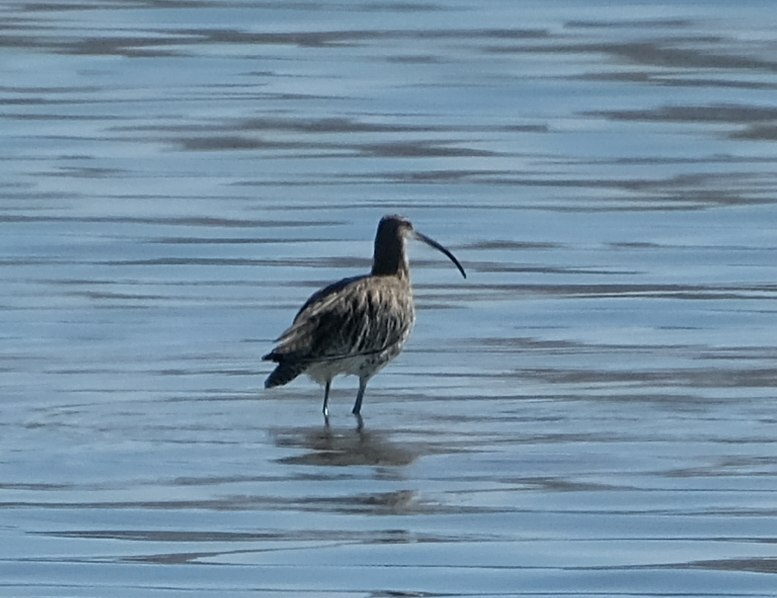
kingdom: Animalia
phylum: Chordata
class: Aves
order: Charadriiformes
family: Scolopacidae
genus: Numenius
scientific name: Numenius arquata
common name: Eurasian curlew
